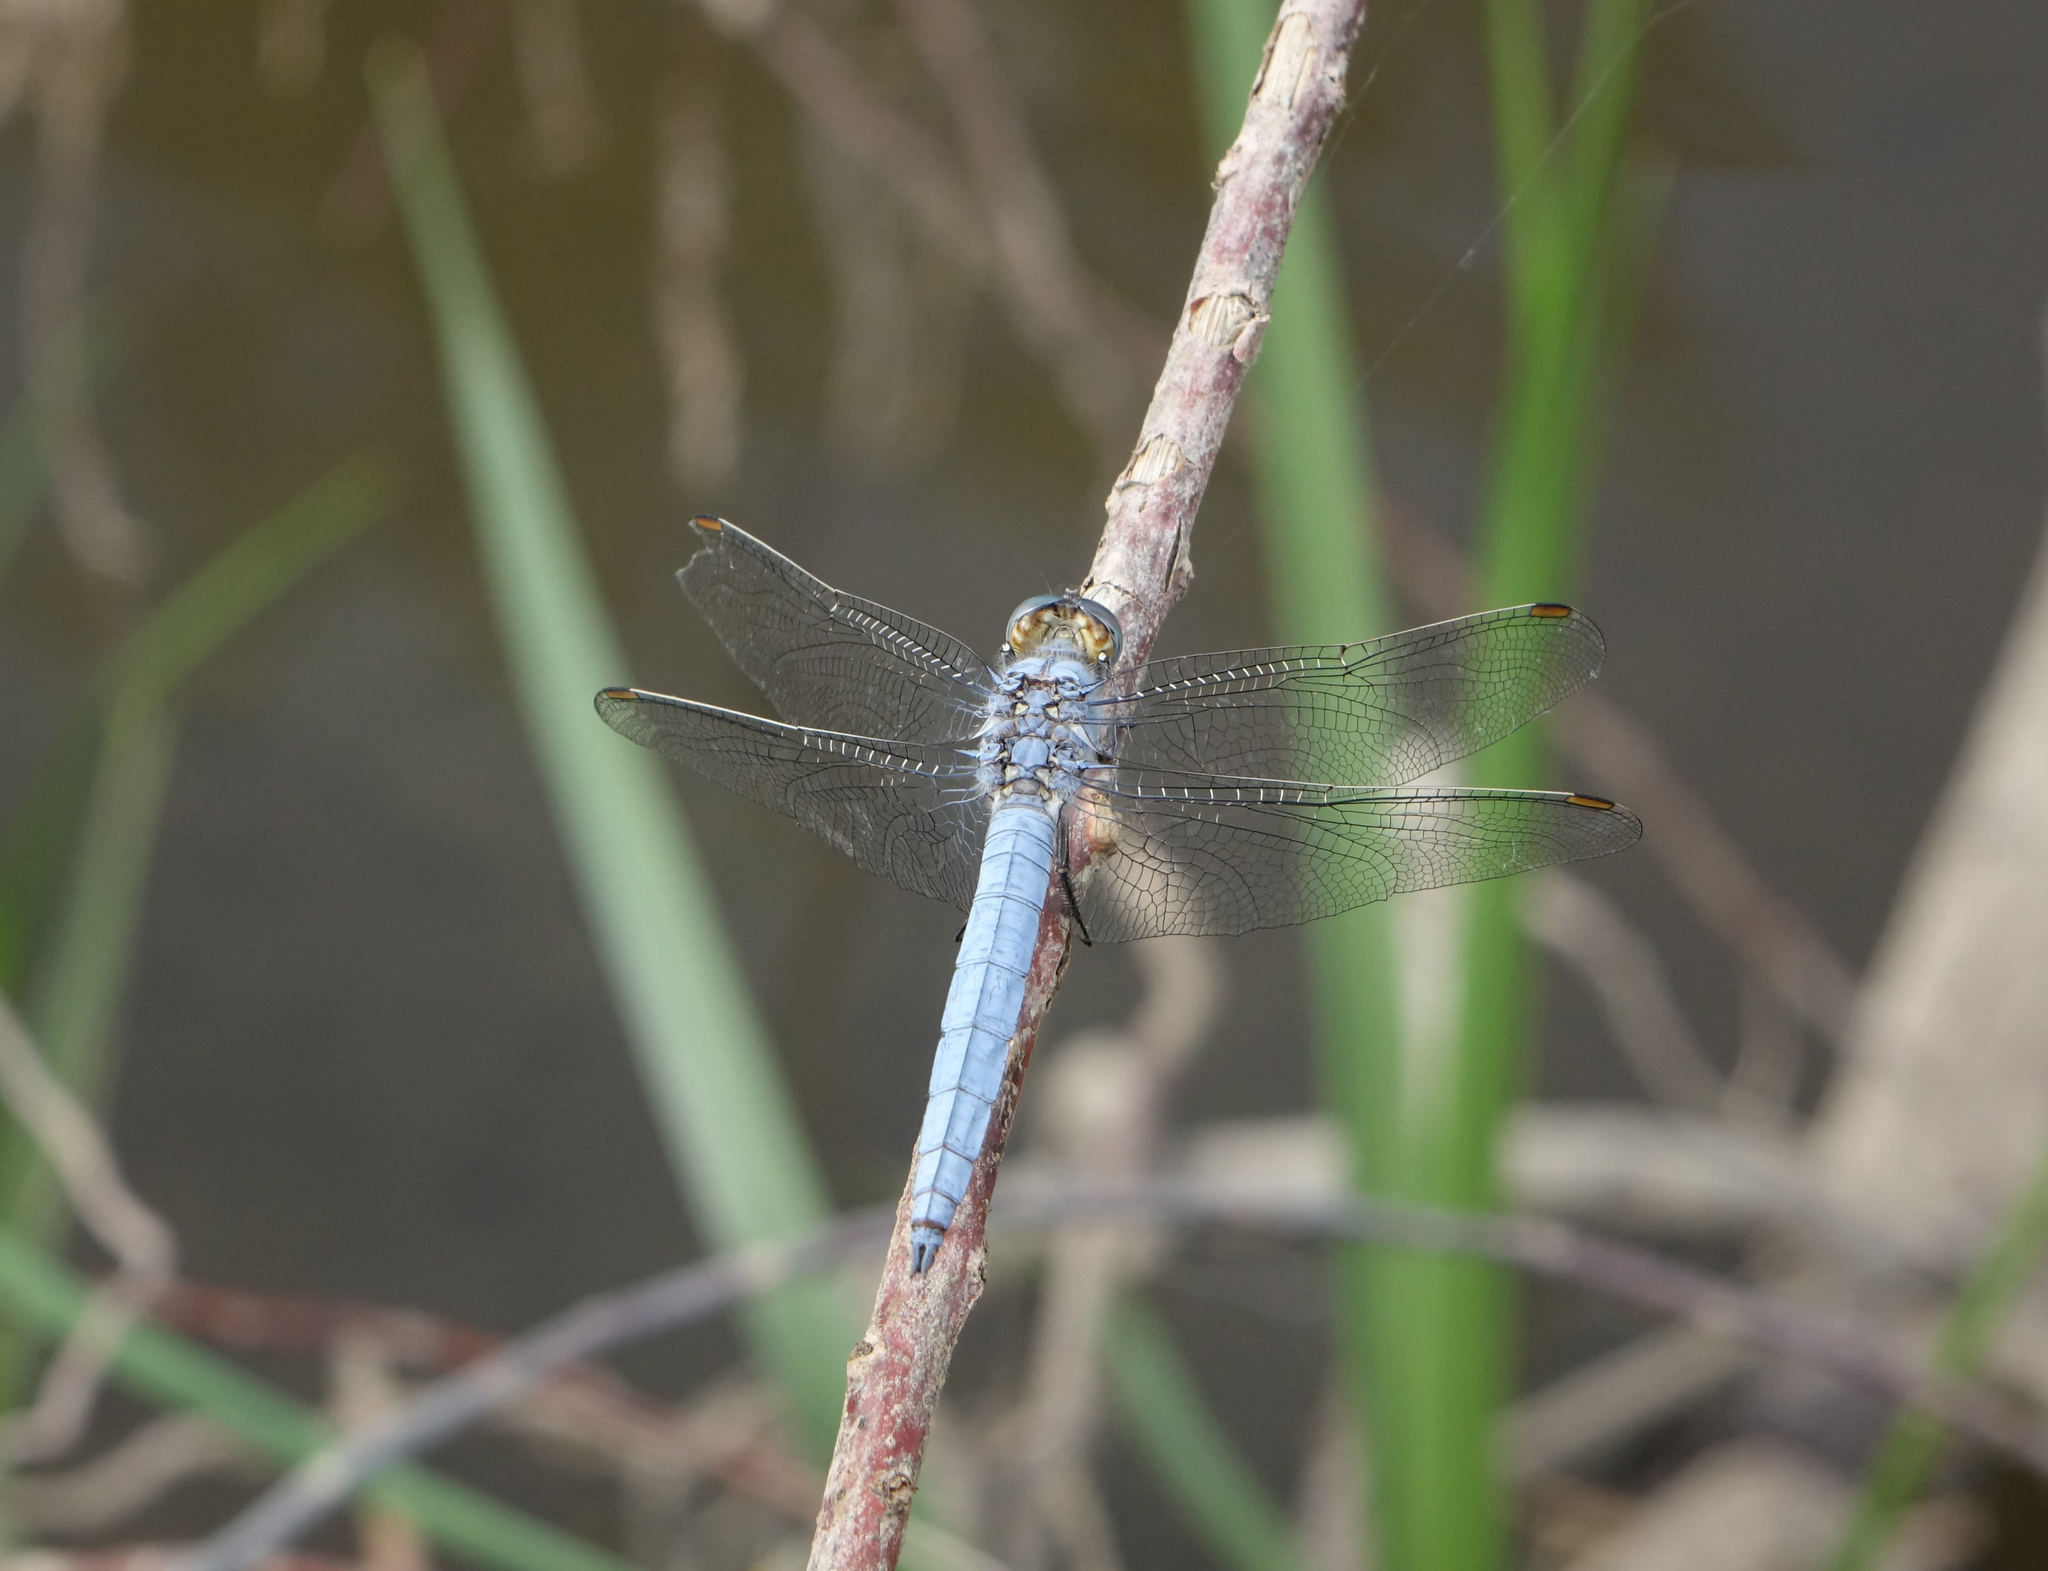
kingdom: Animalia
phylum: Arthropoda
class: Insecta
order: Odonata
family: Libellulidae
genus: Orthetrum
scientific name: Orthetrum brunneum
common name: Southern skimmer
